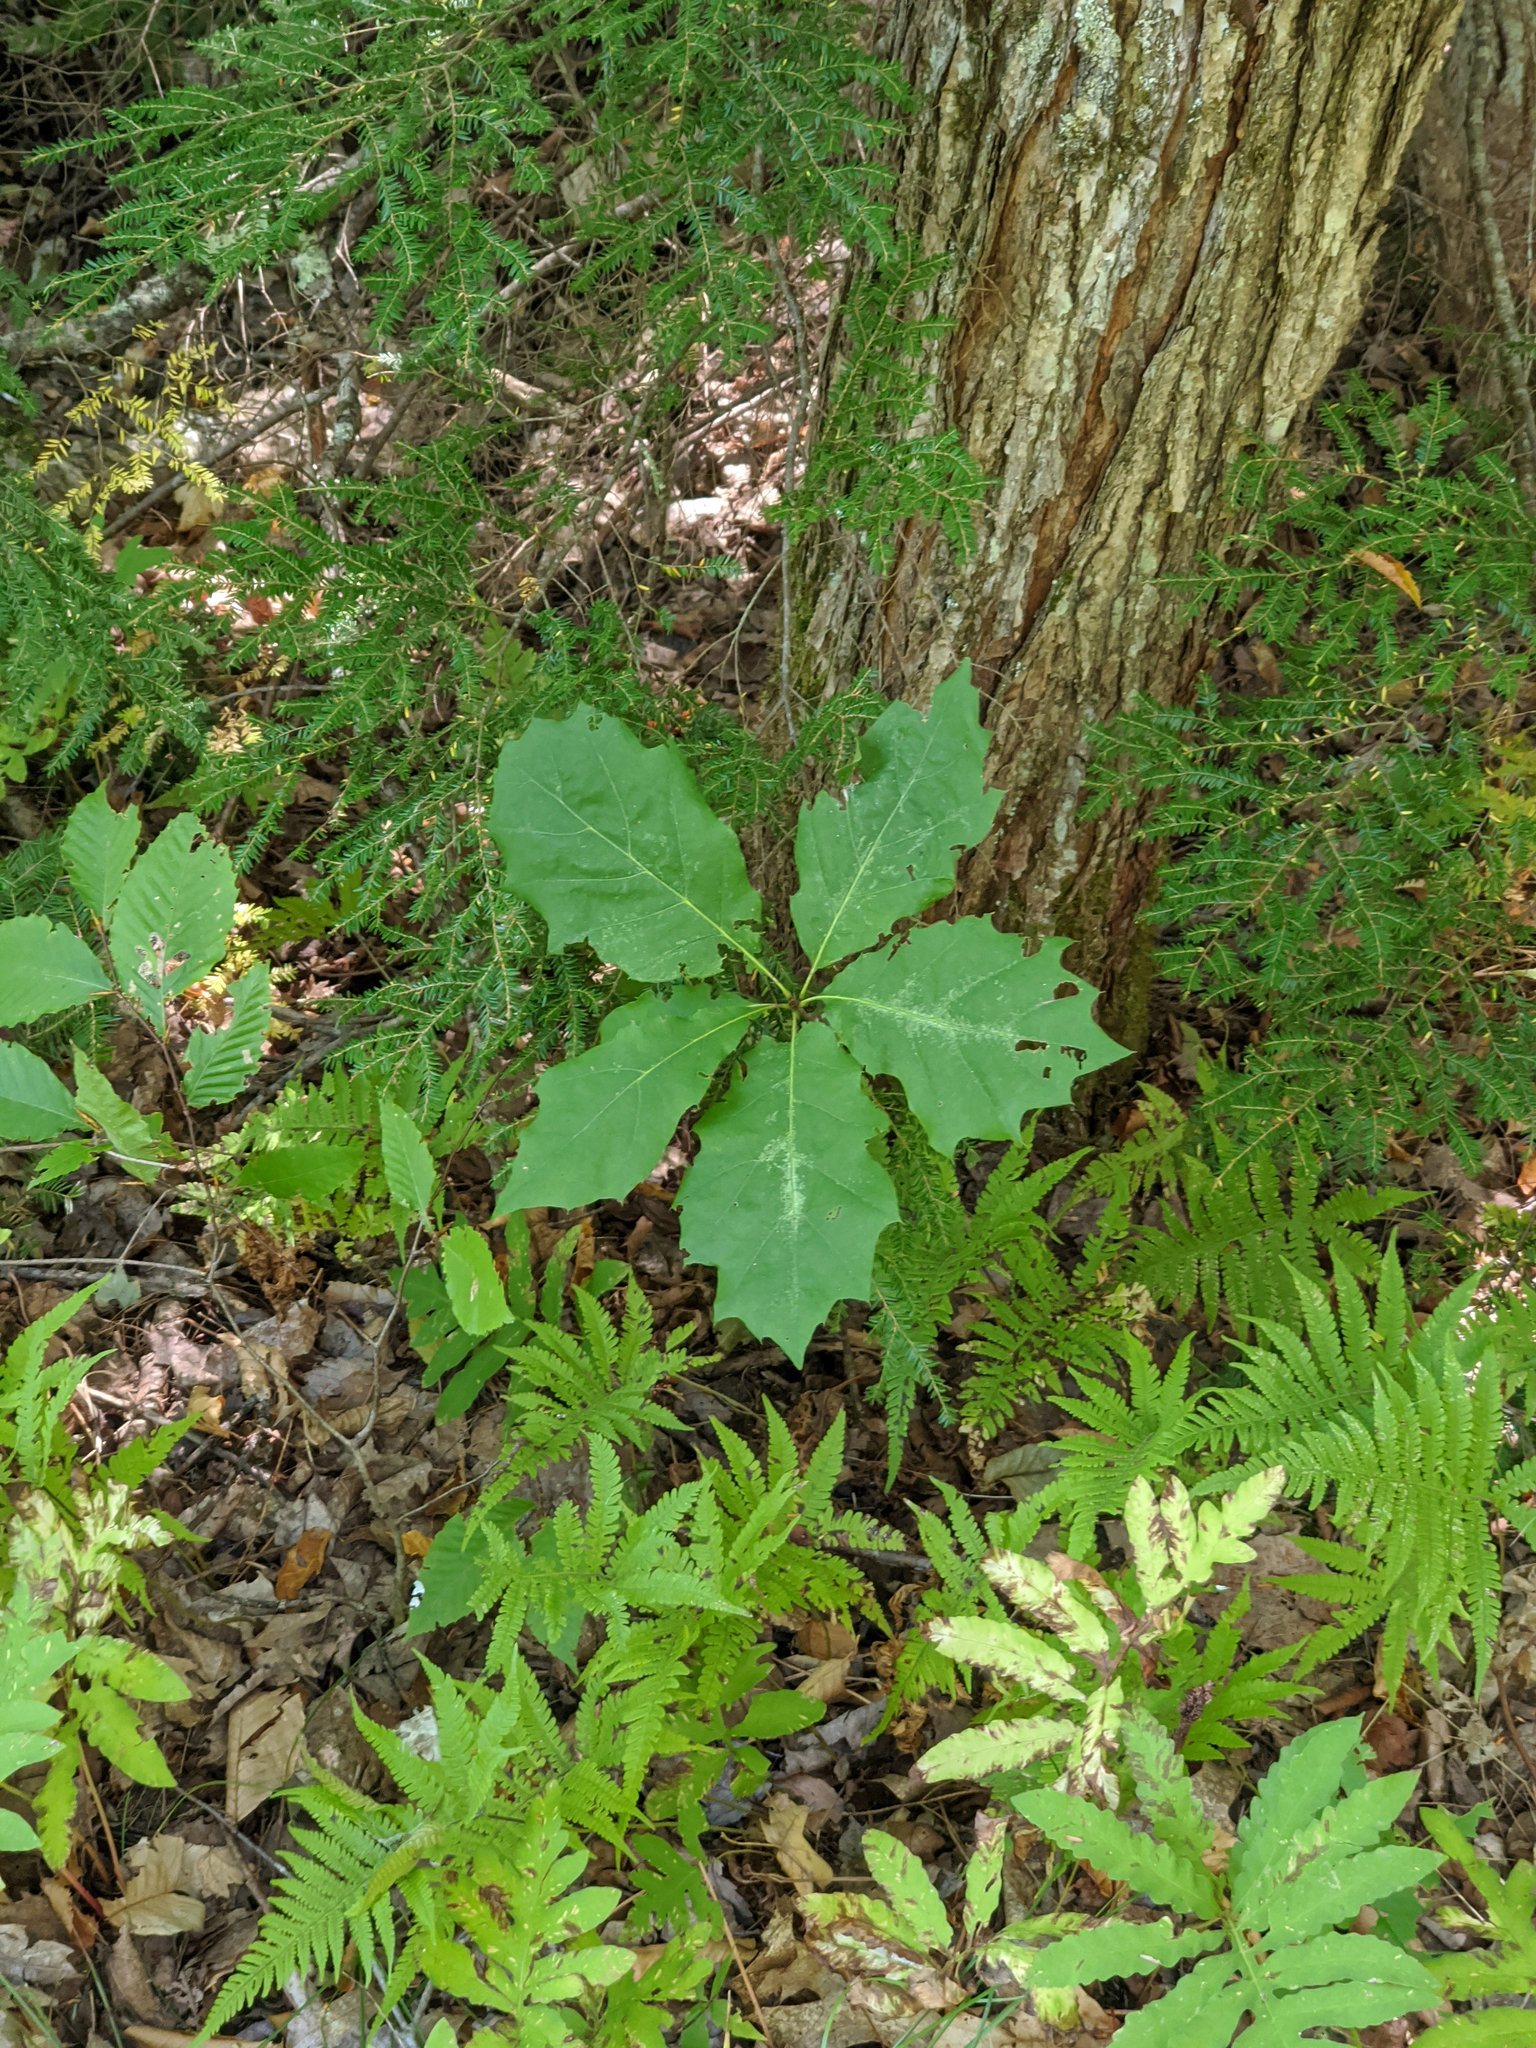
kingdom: Plantae
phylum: Tracheophyta
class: Magnoliopsida
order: Fagales
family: Fagaceae
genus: Quercus
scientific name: Quercus rubra
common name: Red oak
